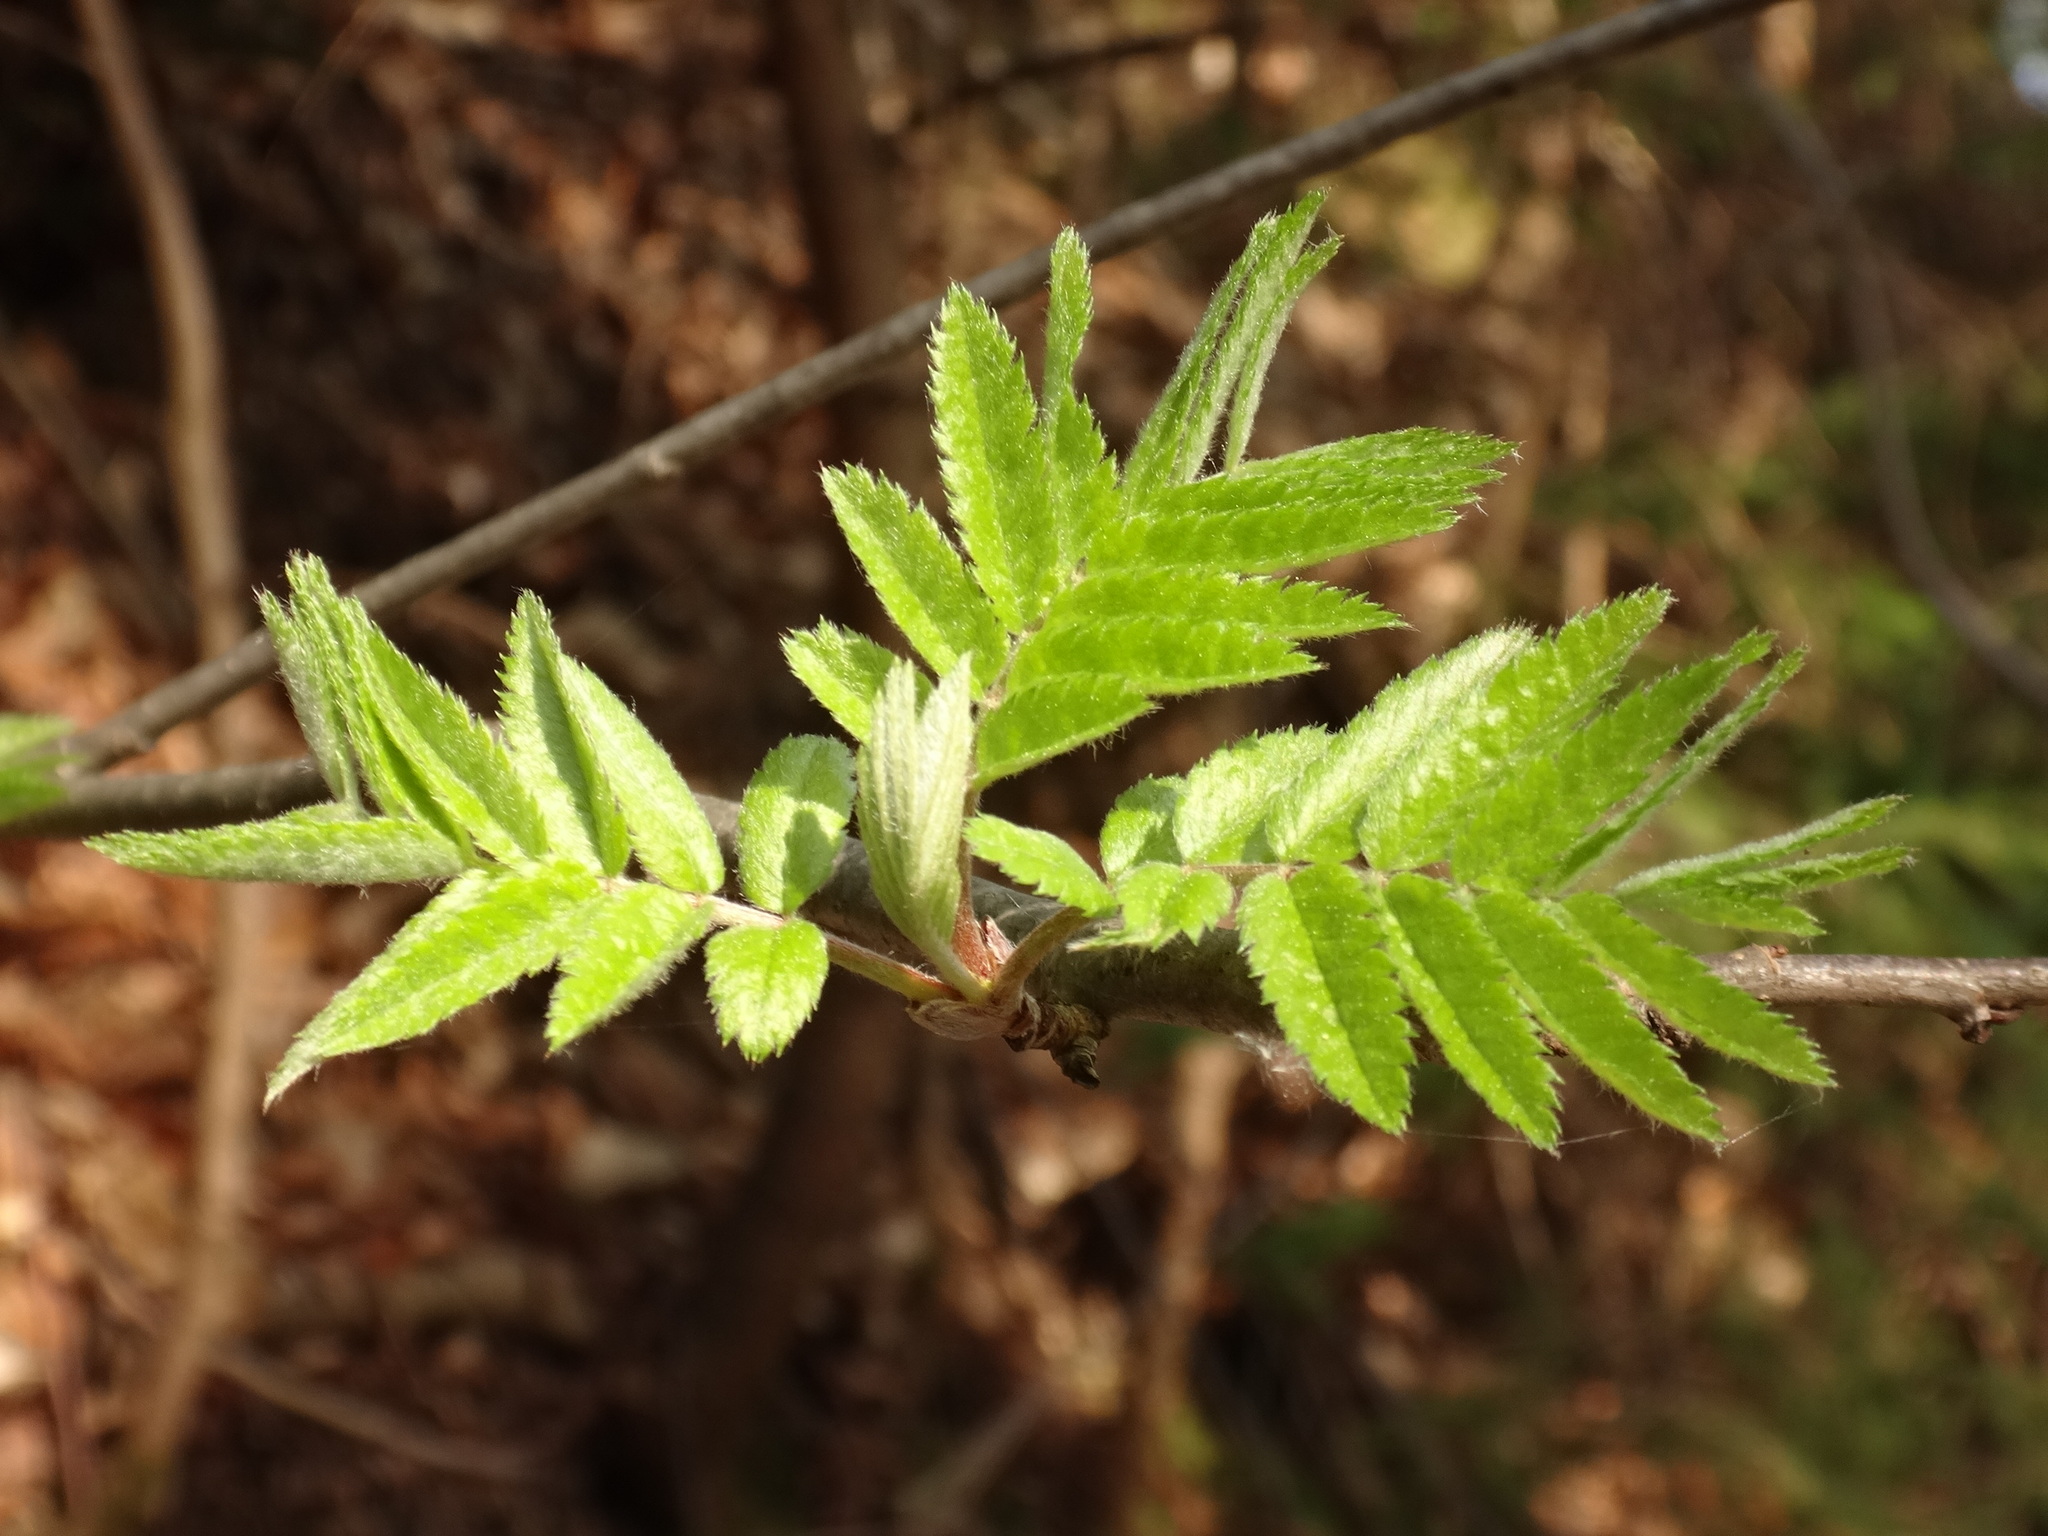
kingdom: Plantae
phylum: Tracheophyta
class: Magnoliopsida
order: Rosales
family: Rosaceae
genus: Sorbus
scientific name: Sorbus aucuparia
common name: Rowan
